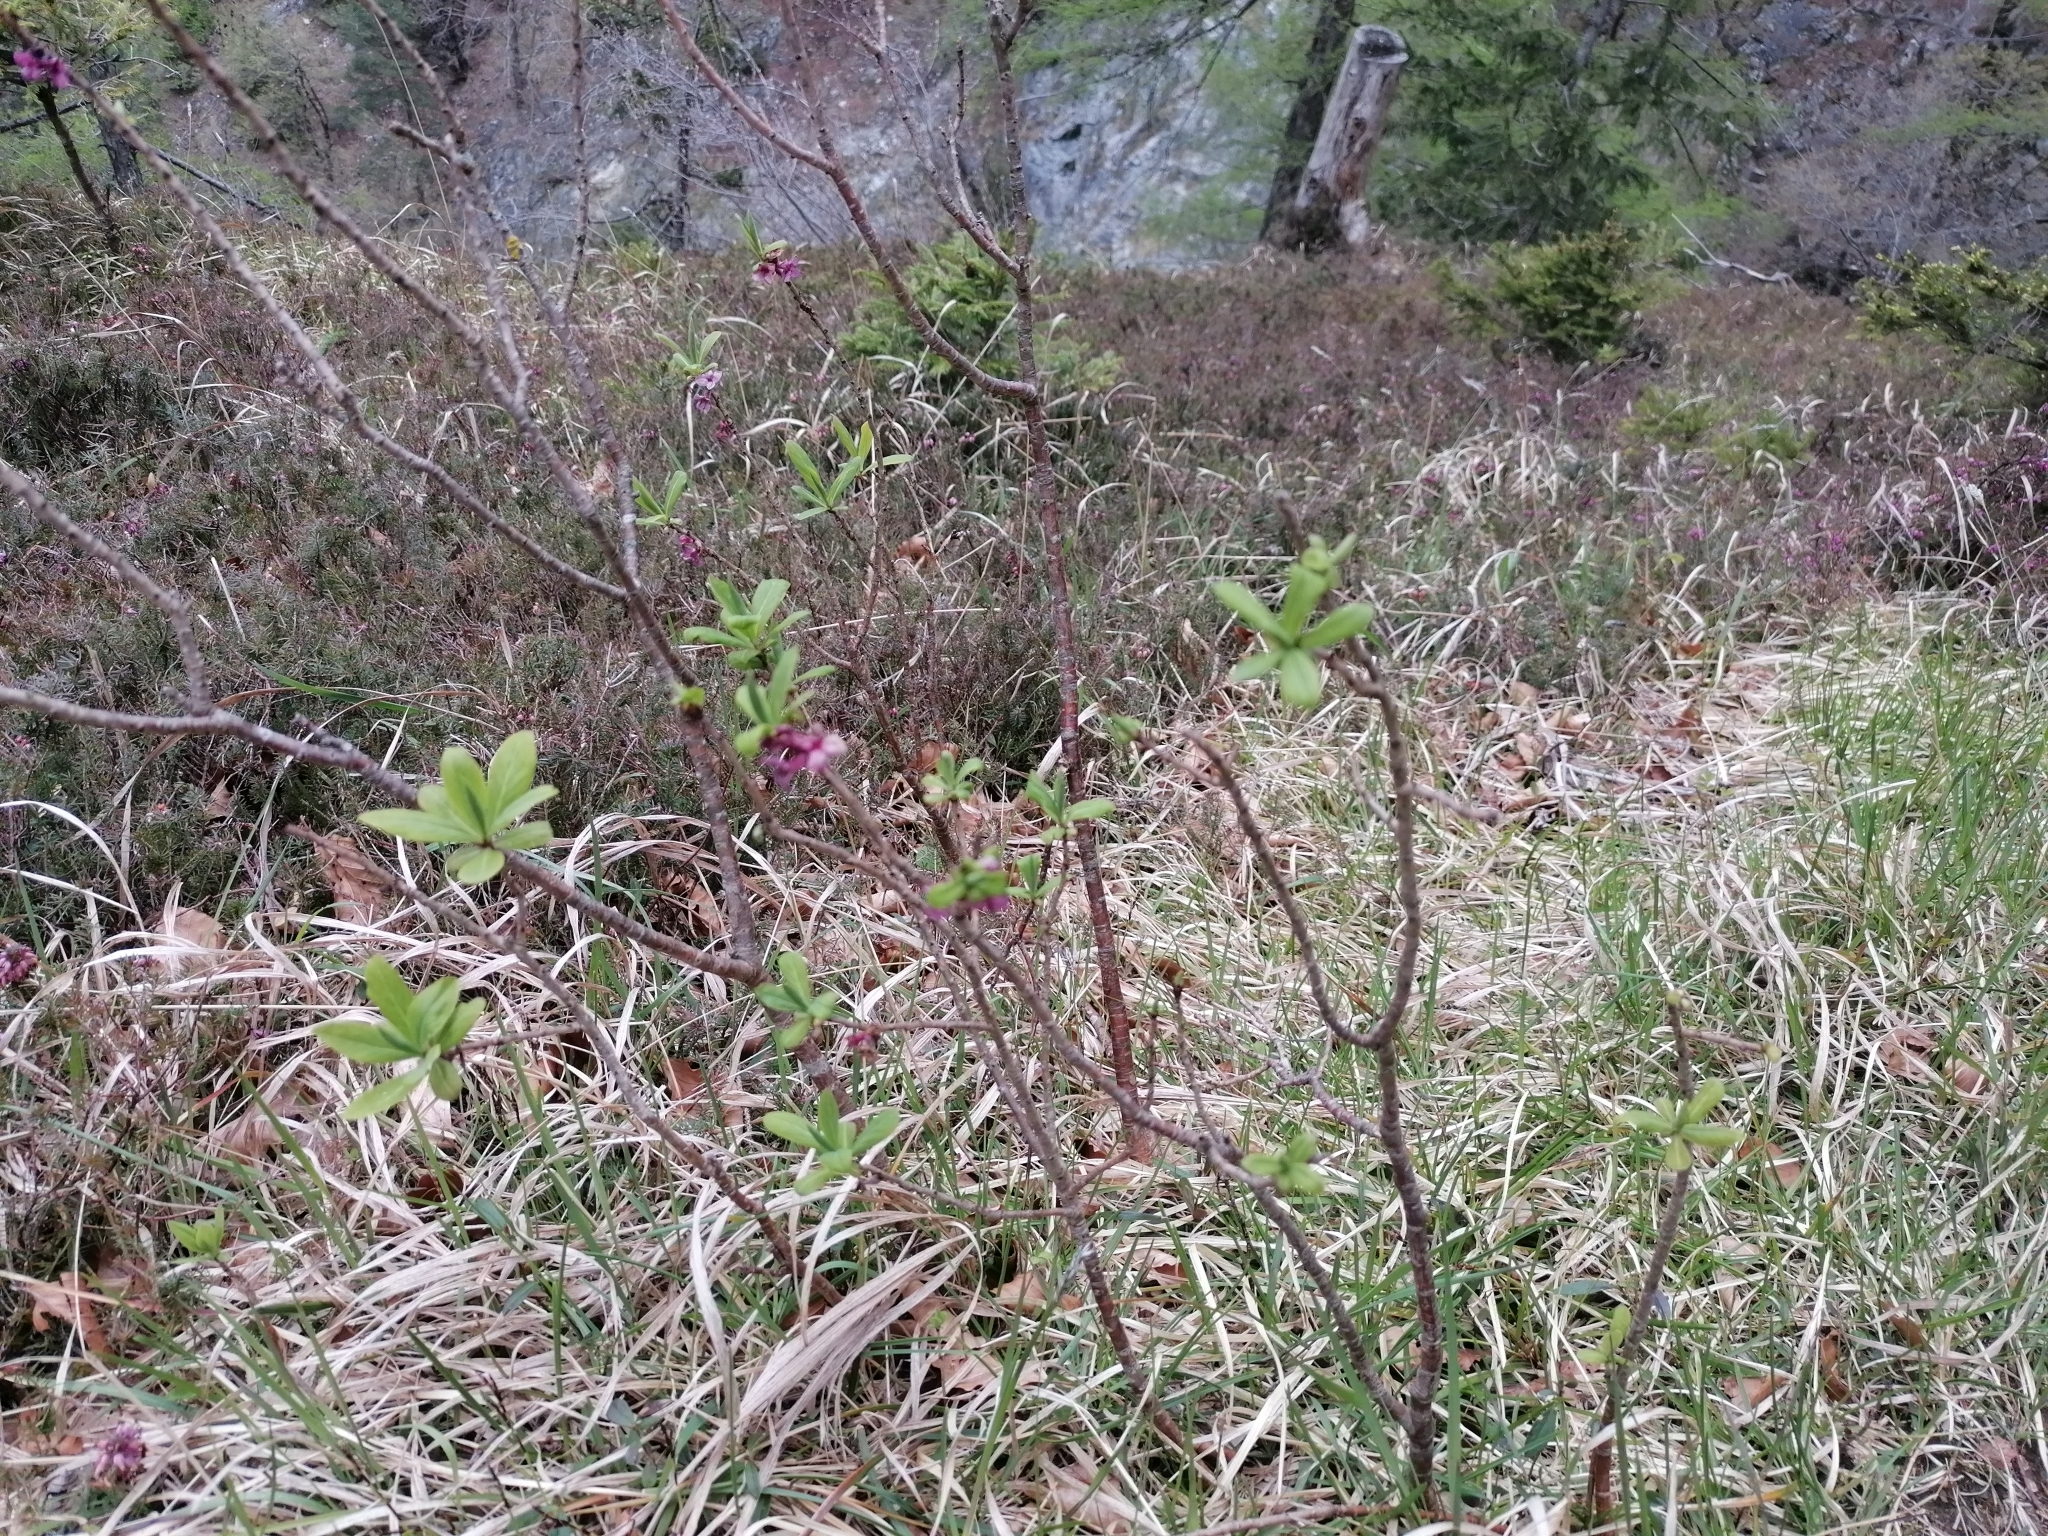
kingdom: Plantae
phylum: Tracheophyta
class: Magnoliopsida
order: Malvales
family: Thymelaeaceae
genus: Daphne
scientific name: Daphne mezereum
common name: Mezereon
